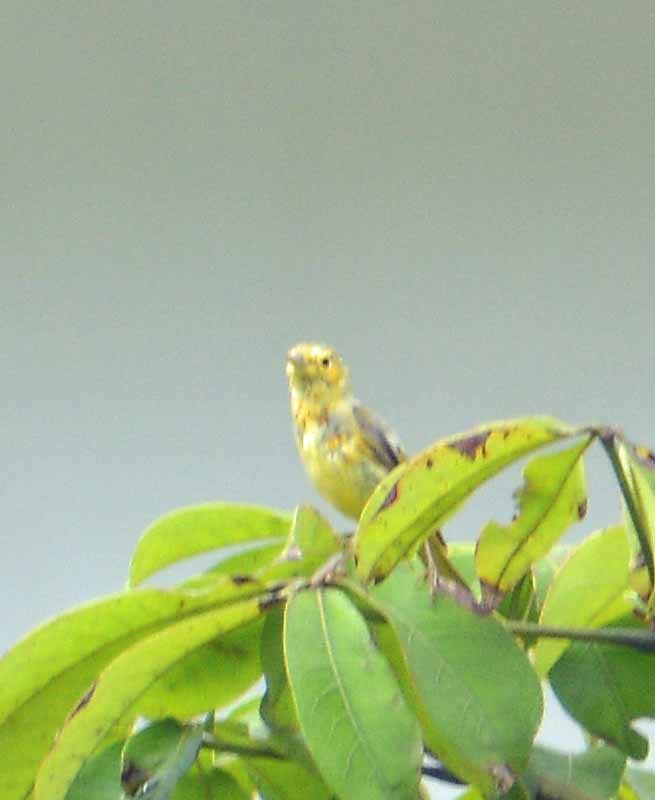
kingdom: Animalia
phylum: Chordata
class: Aves
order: Passeriformes
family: Parulidae
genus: Setophaga
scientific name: Setophaga petechia
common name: Yellow warbler
